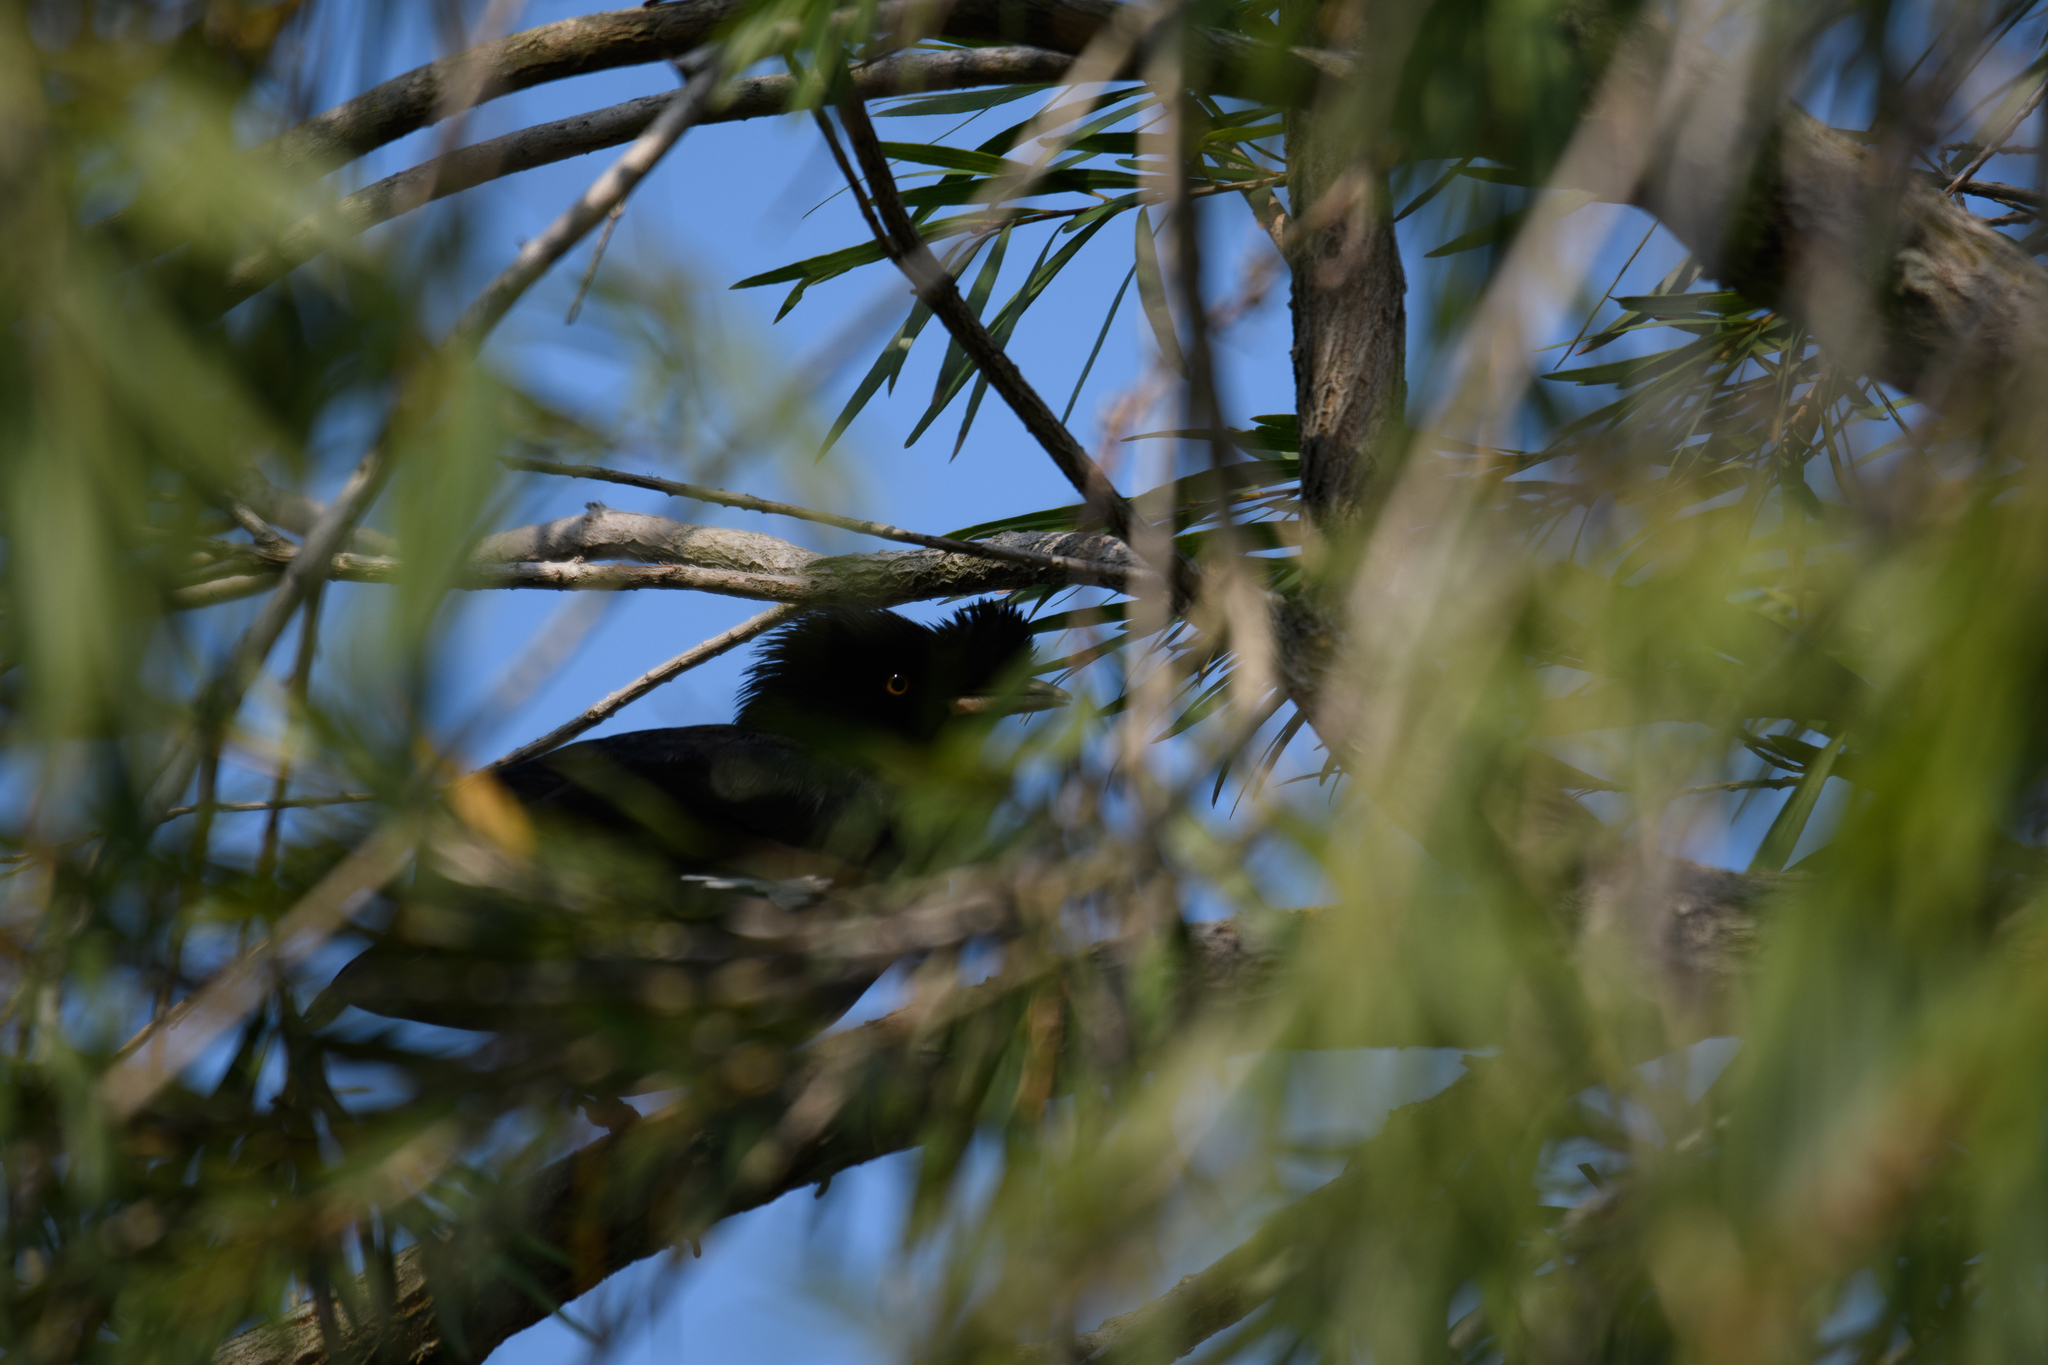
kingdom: Animalia
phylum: Chordata
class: Aves
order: Passeriformes
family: Sturnidae
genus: Acridotheres
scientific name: Acridotheres cristatellus
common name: Crested myna
